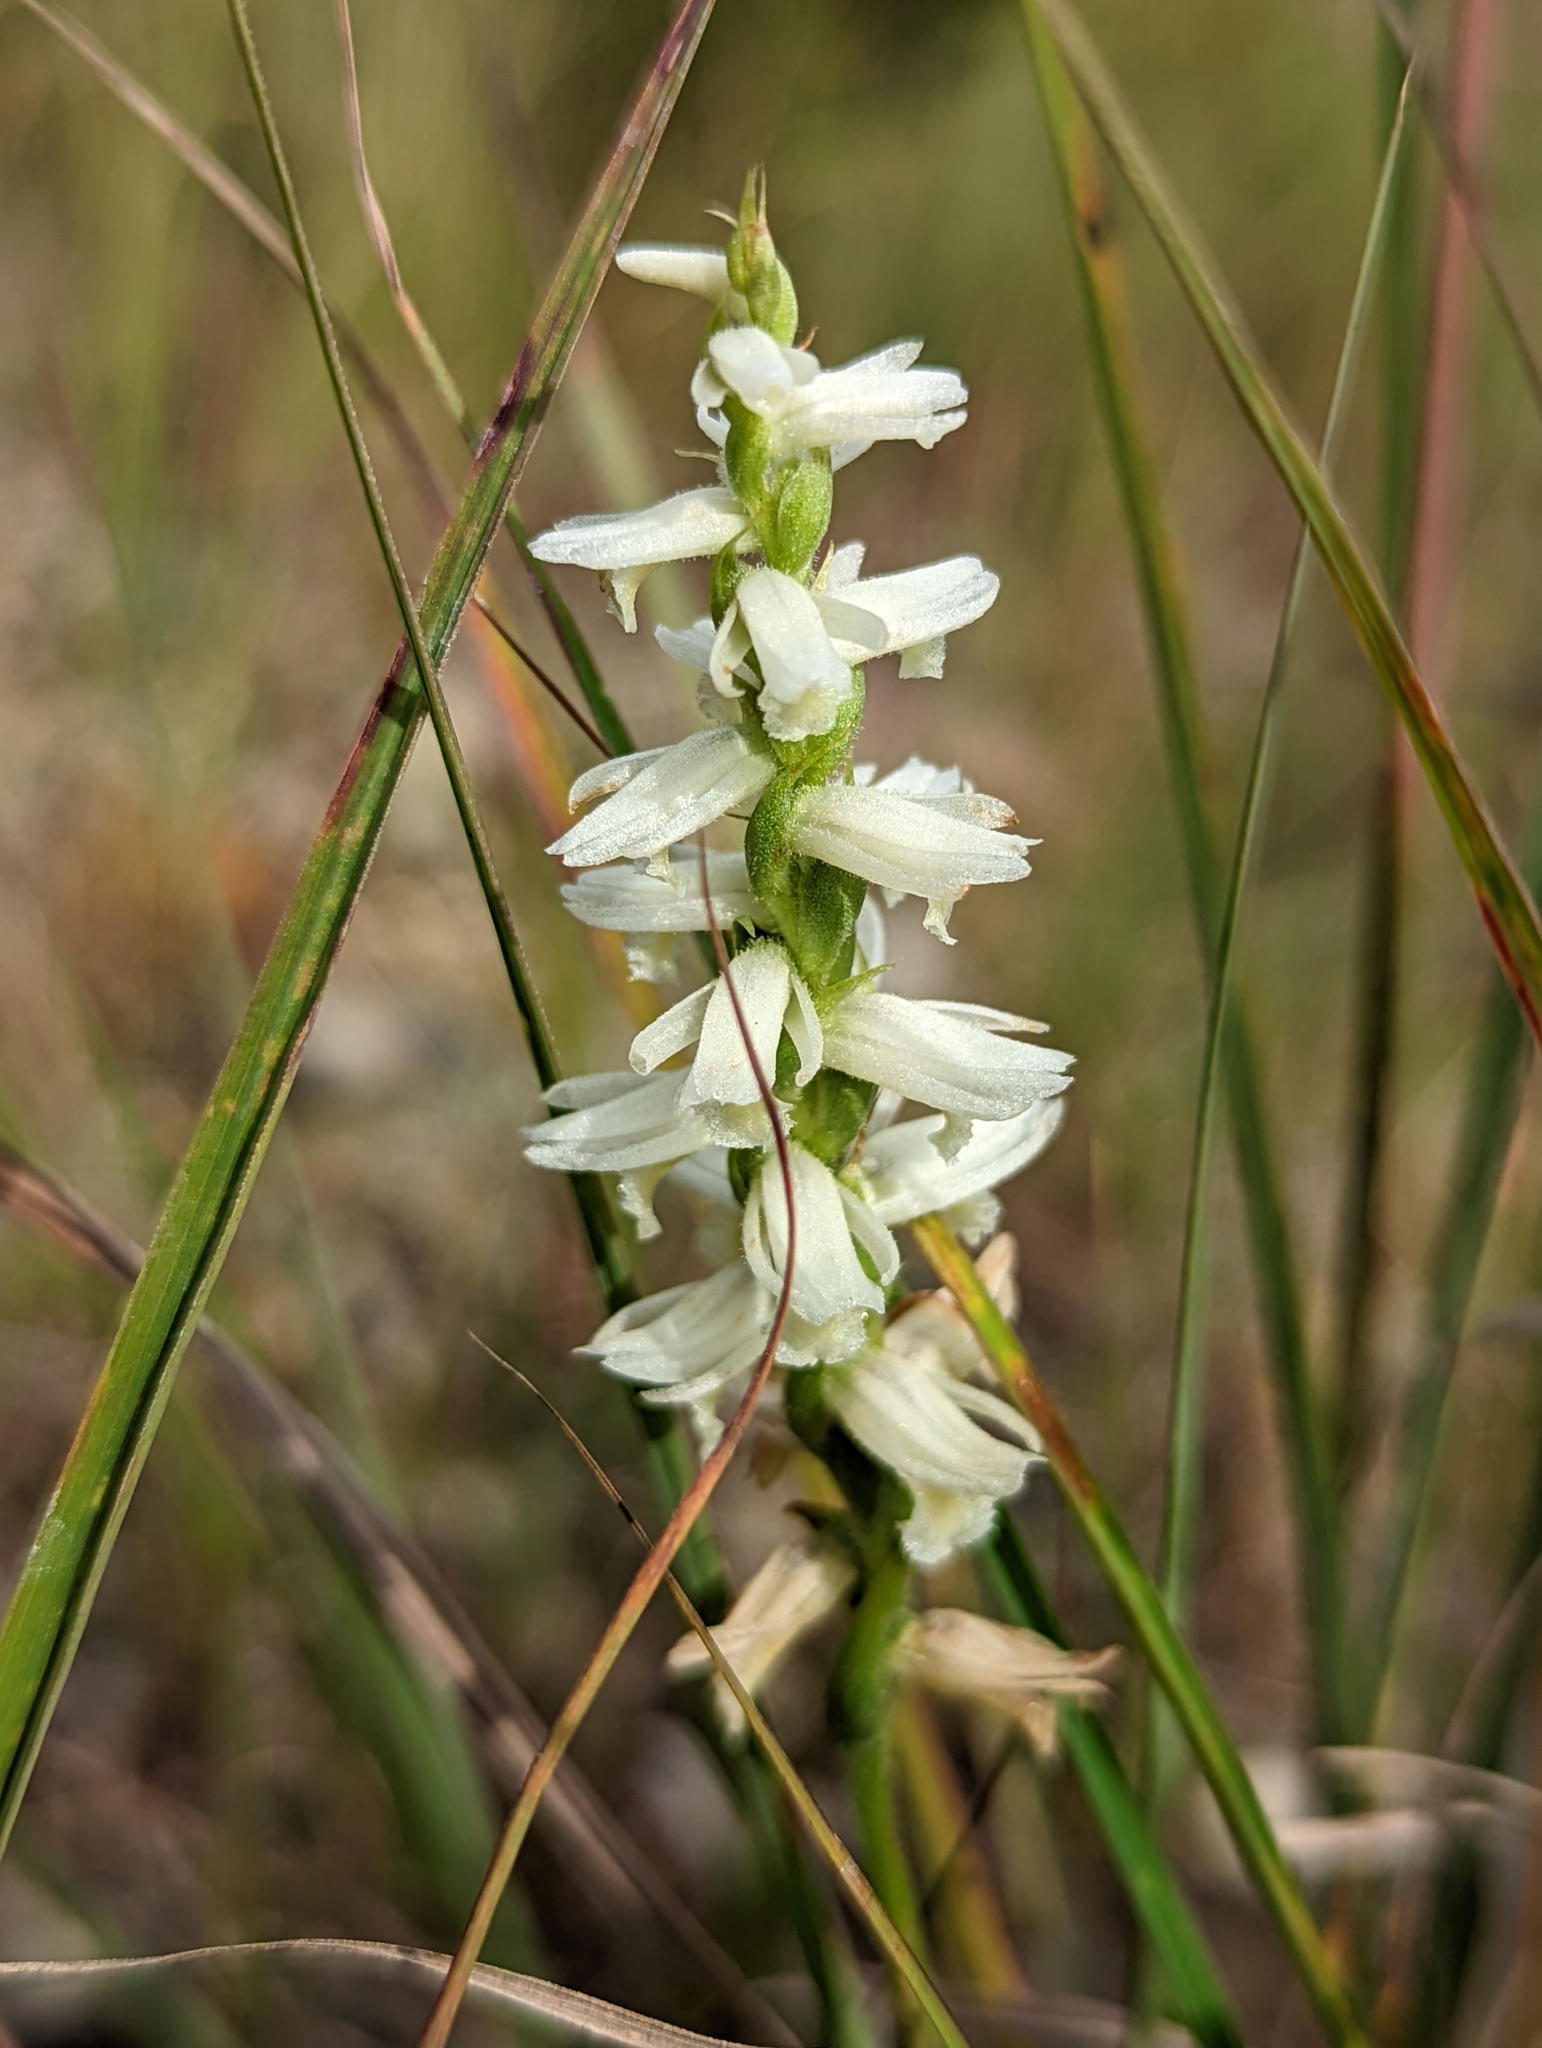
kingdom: Plantae
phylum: Tracheophyta
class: Liliopsida
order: Asparagales
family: Orchidaceae
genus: Spiranthes
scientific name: Spiranthes magnicamporum
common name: Great plains ladies'-tresses
